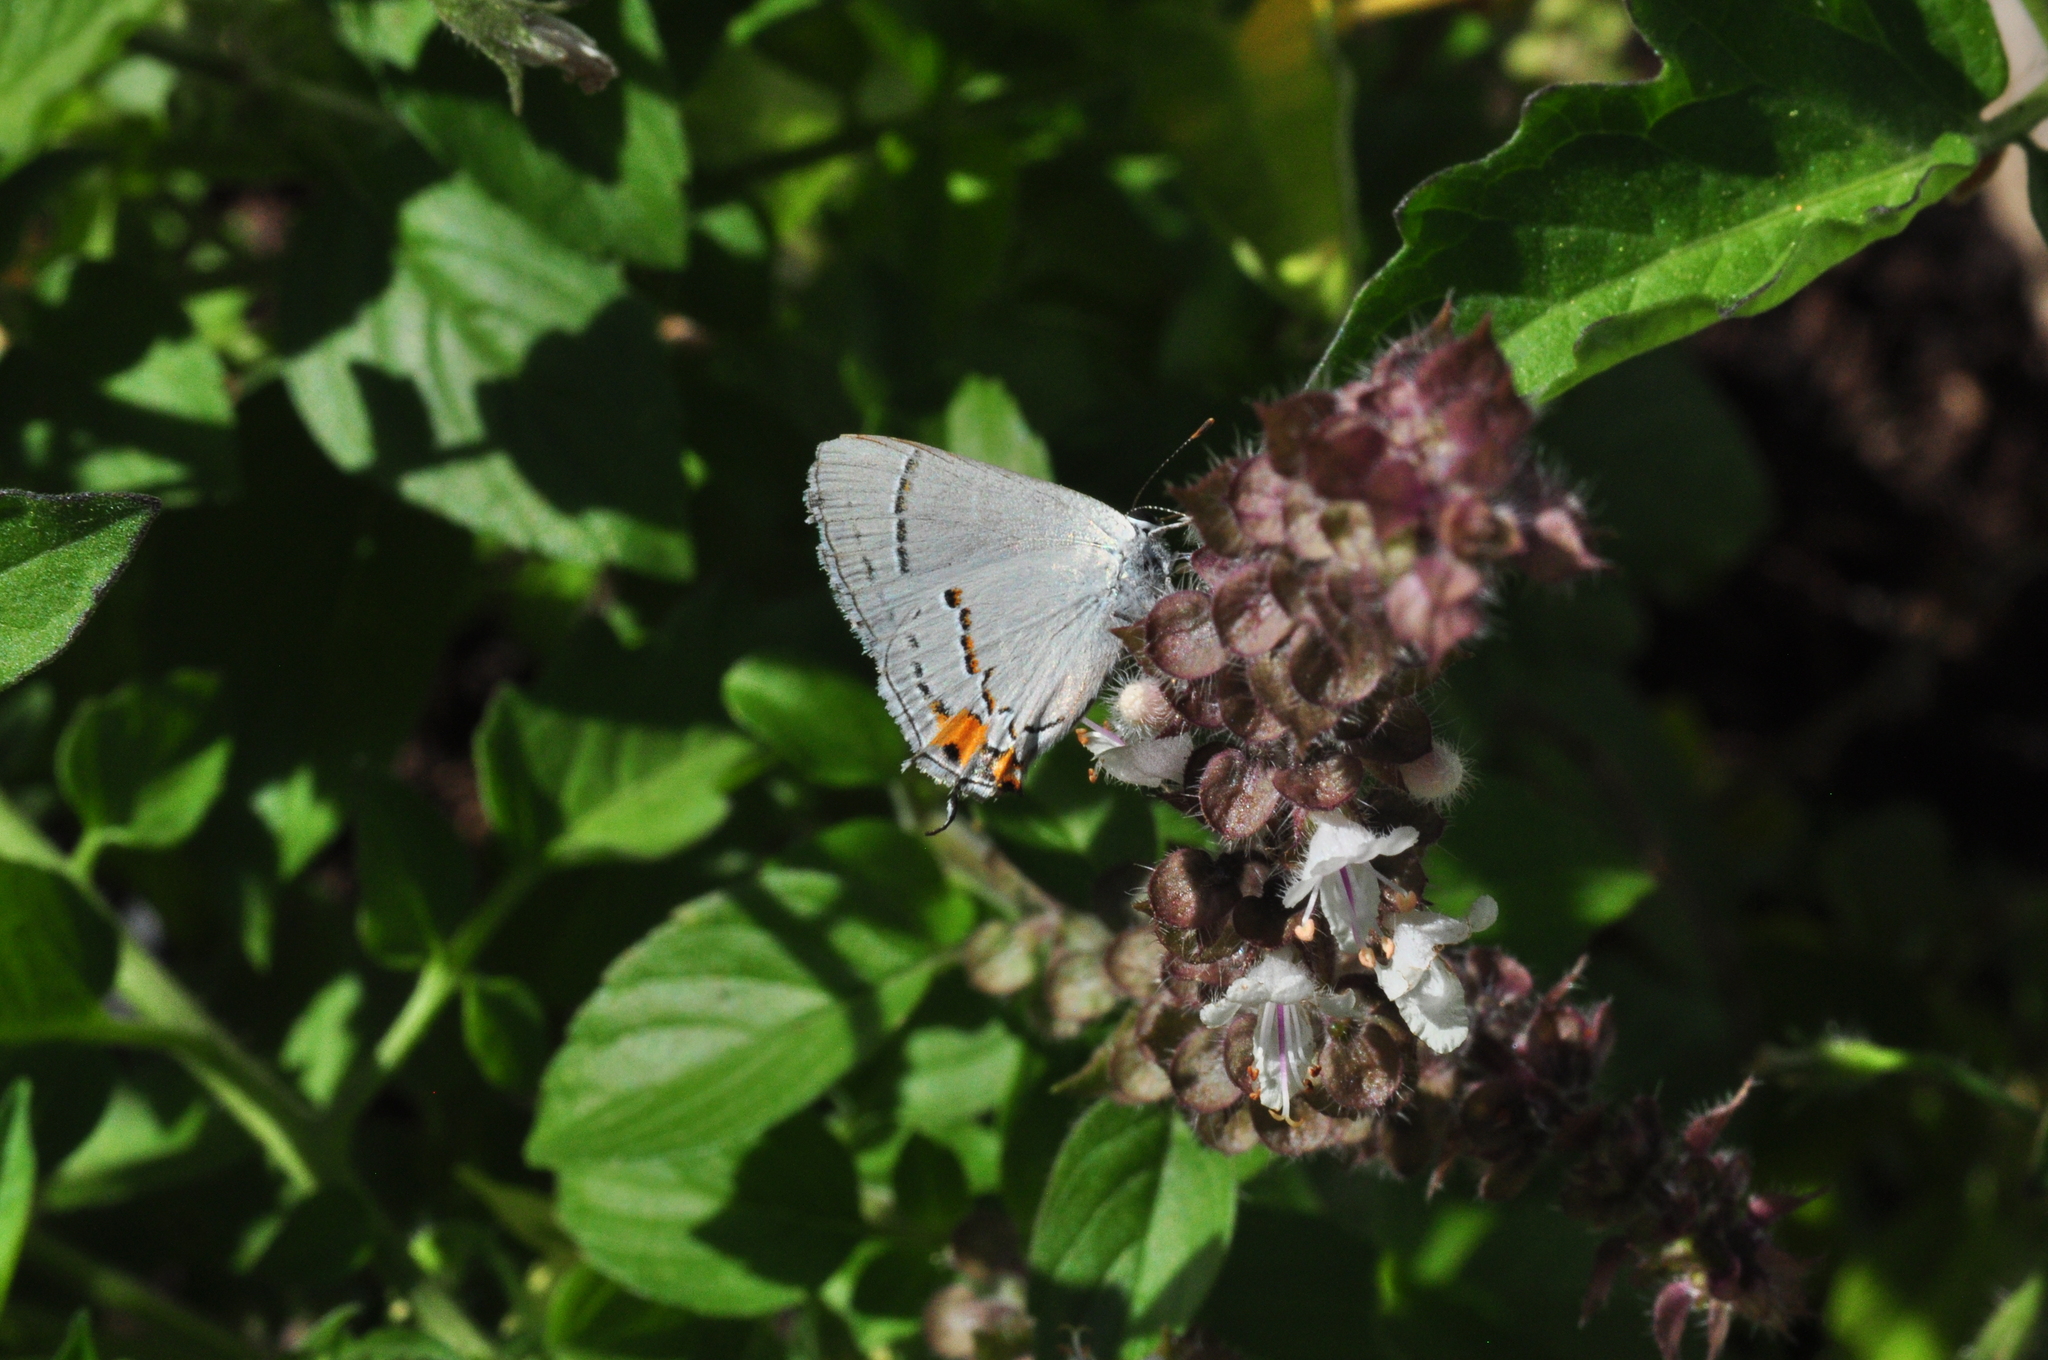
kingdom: Animalia
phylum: Arthropoda
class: Insecta
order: Lepidoptera
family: Lycaenidae
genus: Strymon
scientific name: Strymon melinus
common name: Gray hairstreak
